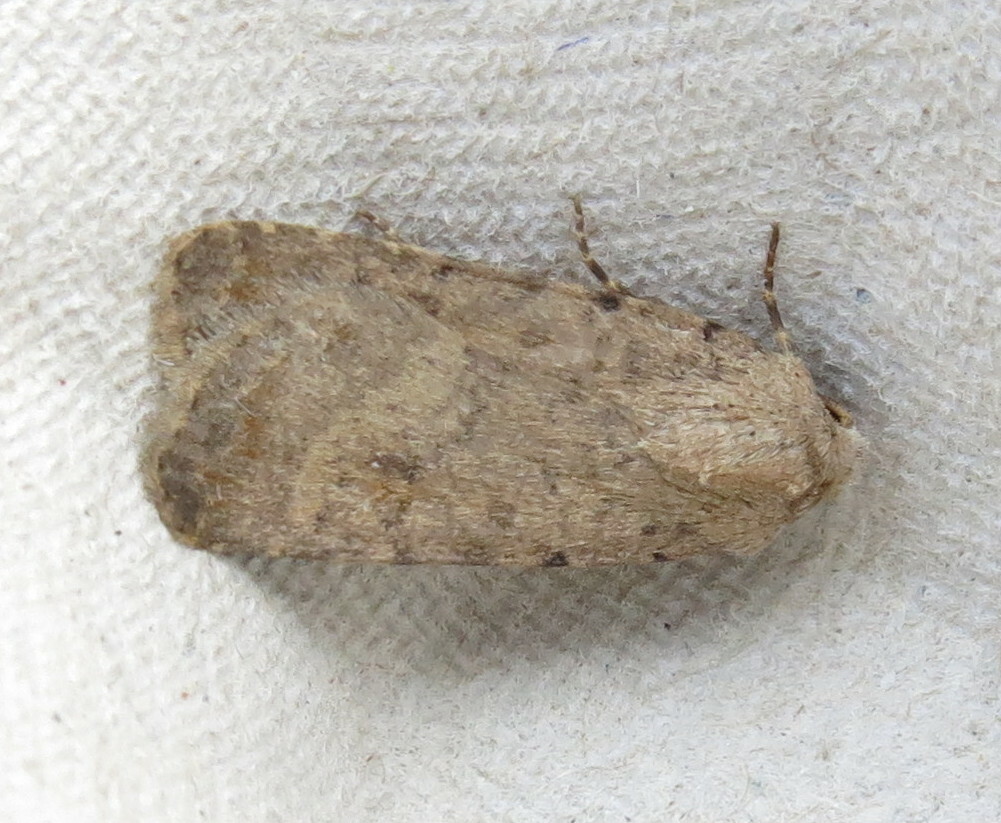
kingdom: Animalia
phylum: Arthropoda
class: Insecta
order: Lepidoptera
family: Noctuidae
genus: Caradrina
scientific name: Caradrina clavipalpis
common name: Pale mottled willow
